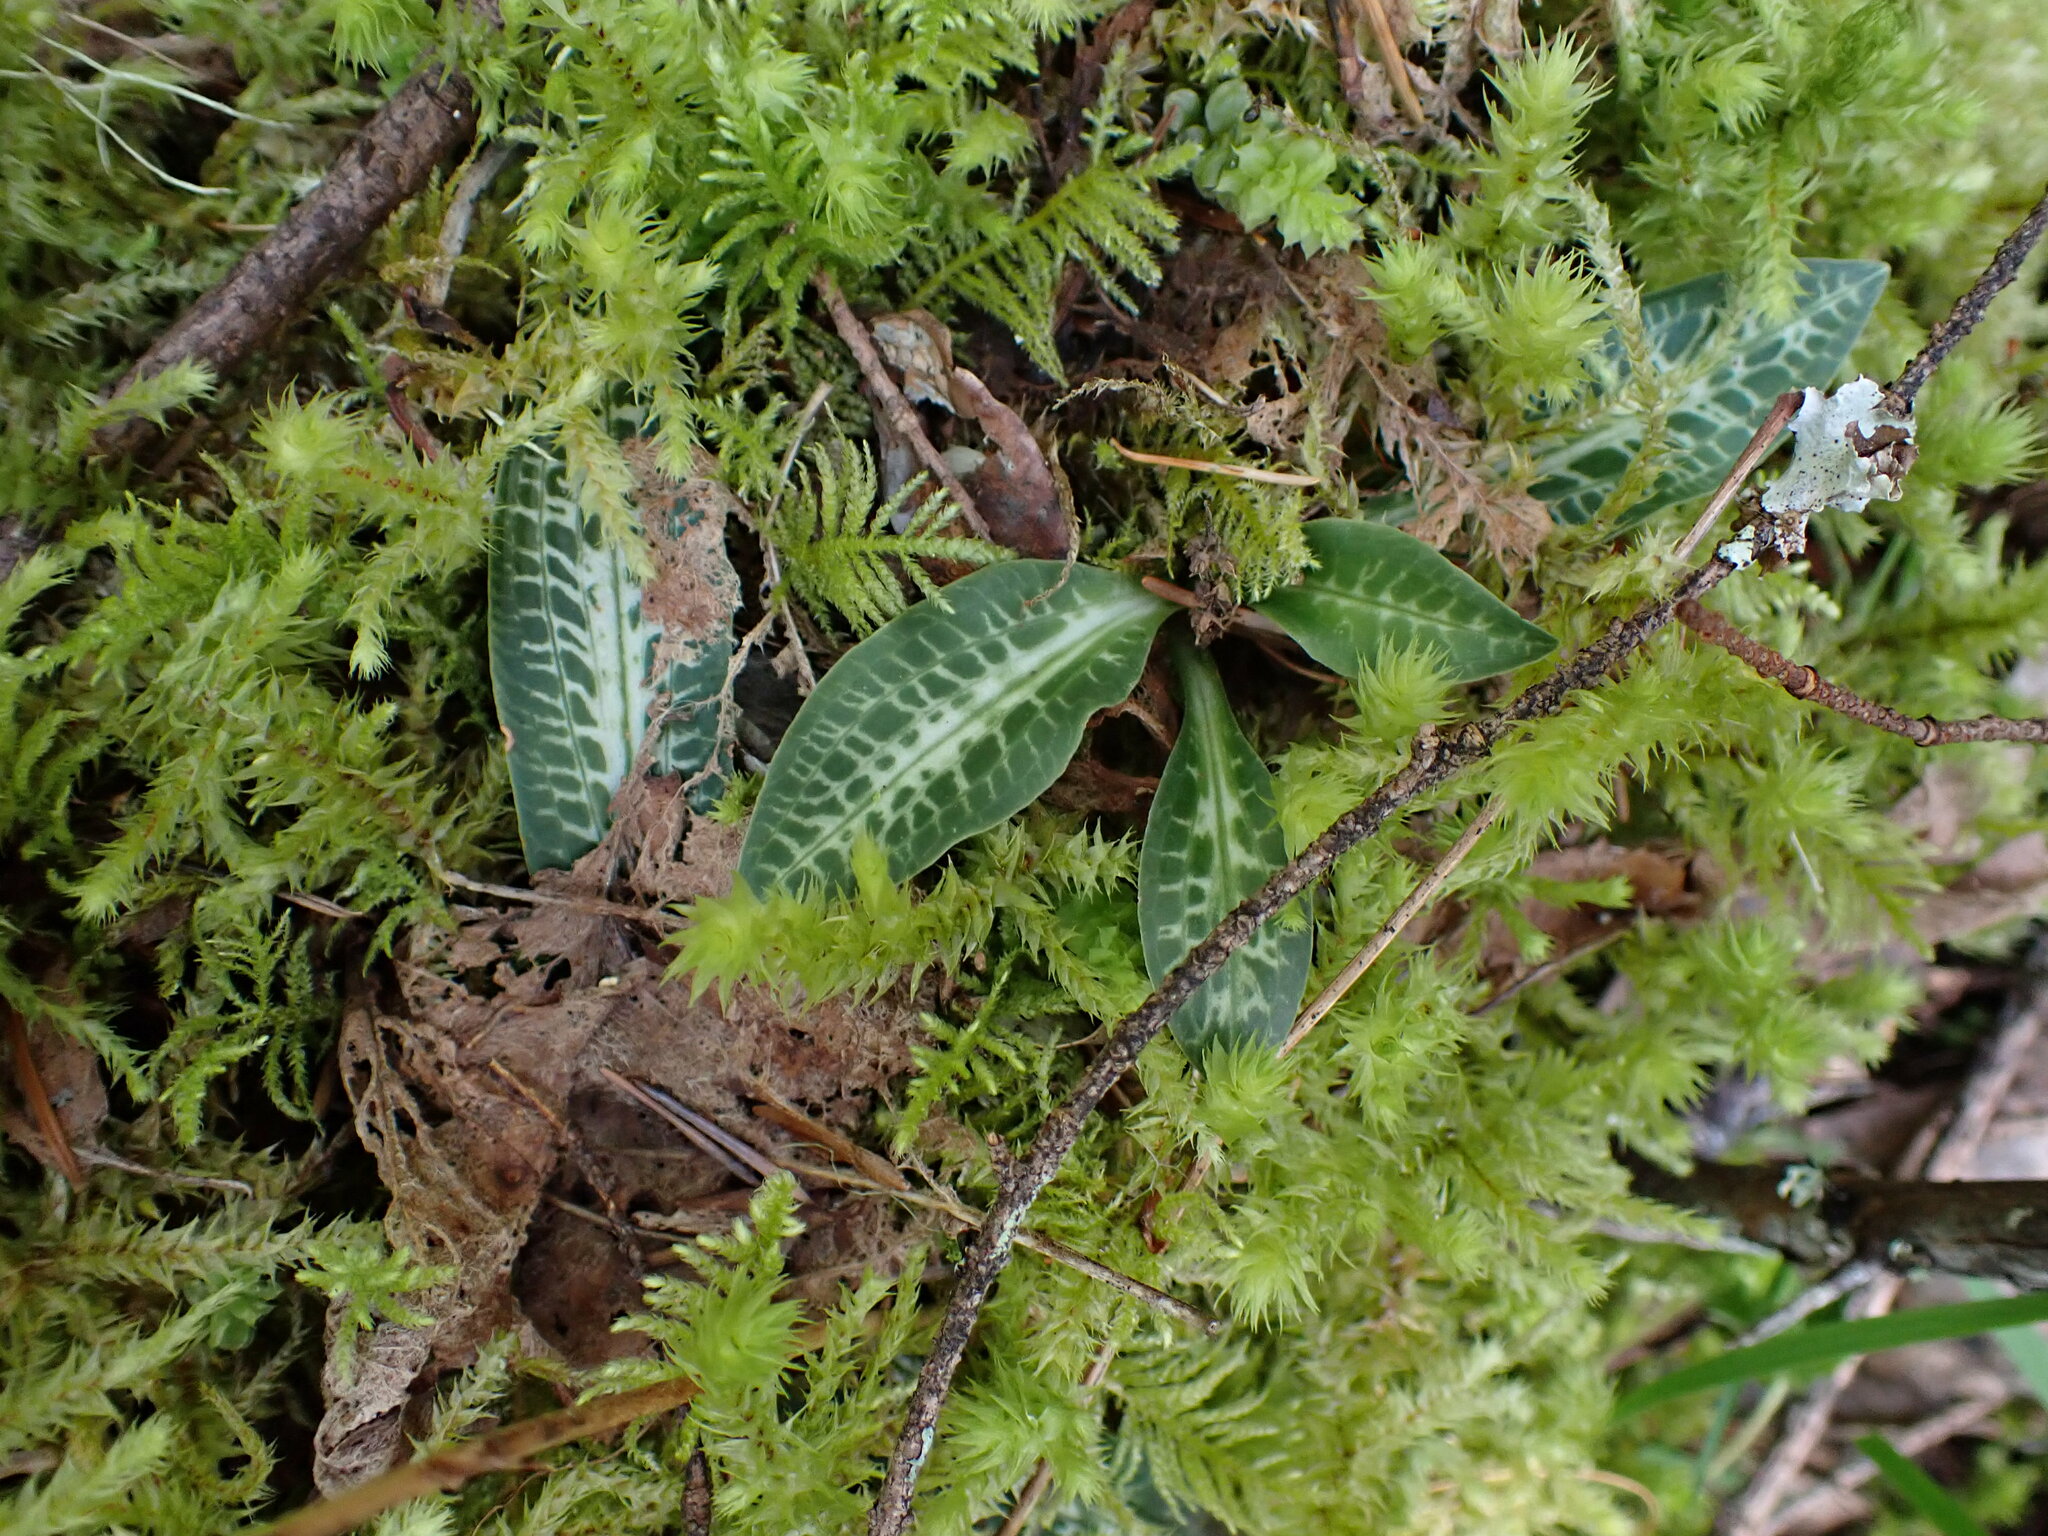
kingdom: Plantae
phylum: Tracheophyta
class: Liliopsida
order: Asparagales
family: Orchidaceae
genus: Goodyera
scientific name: Goodyera oblongifolia
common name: Giant rattlesnake-plantain
